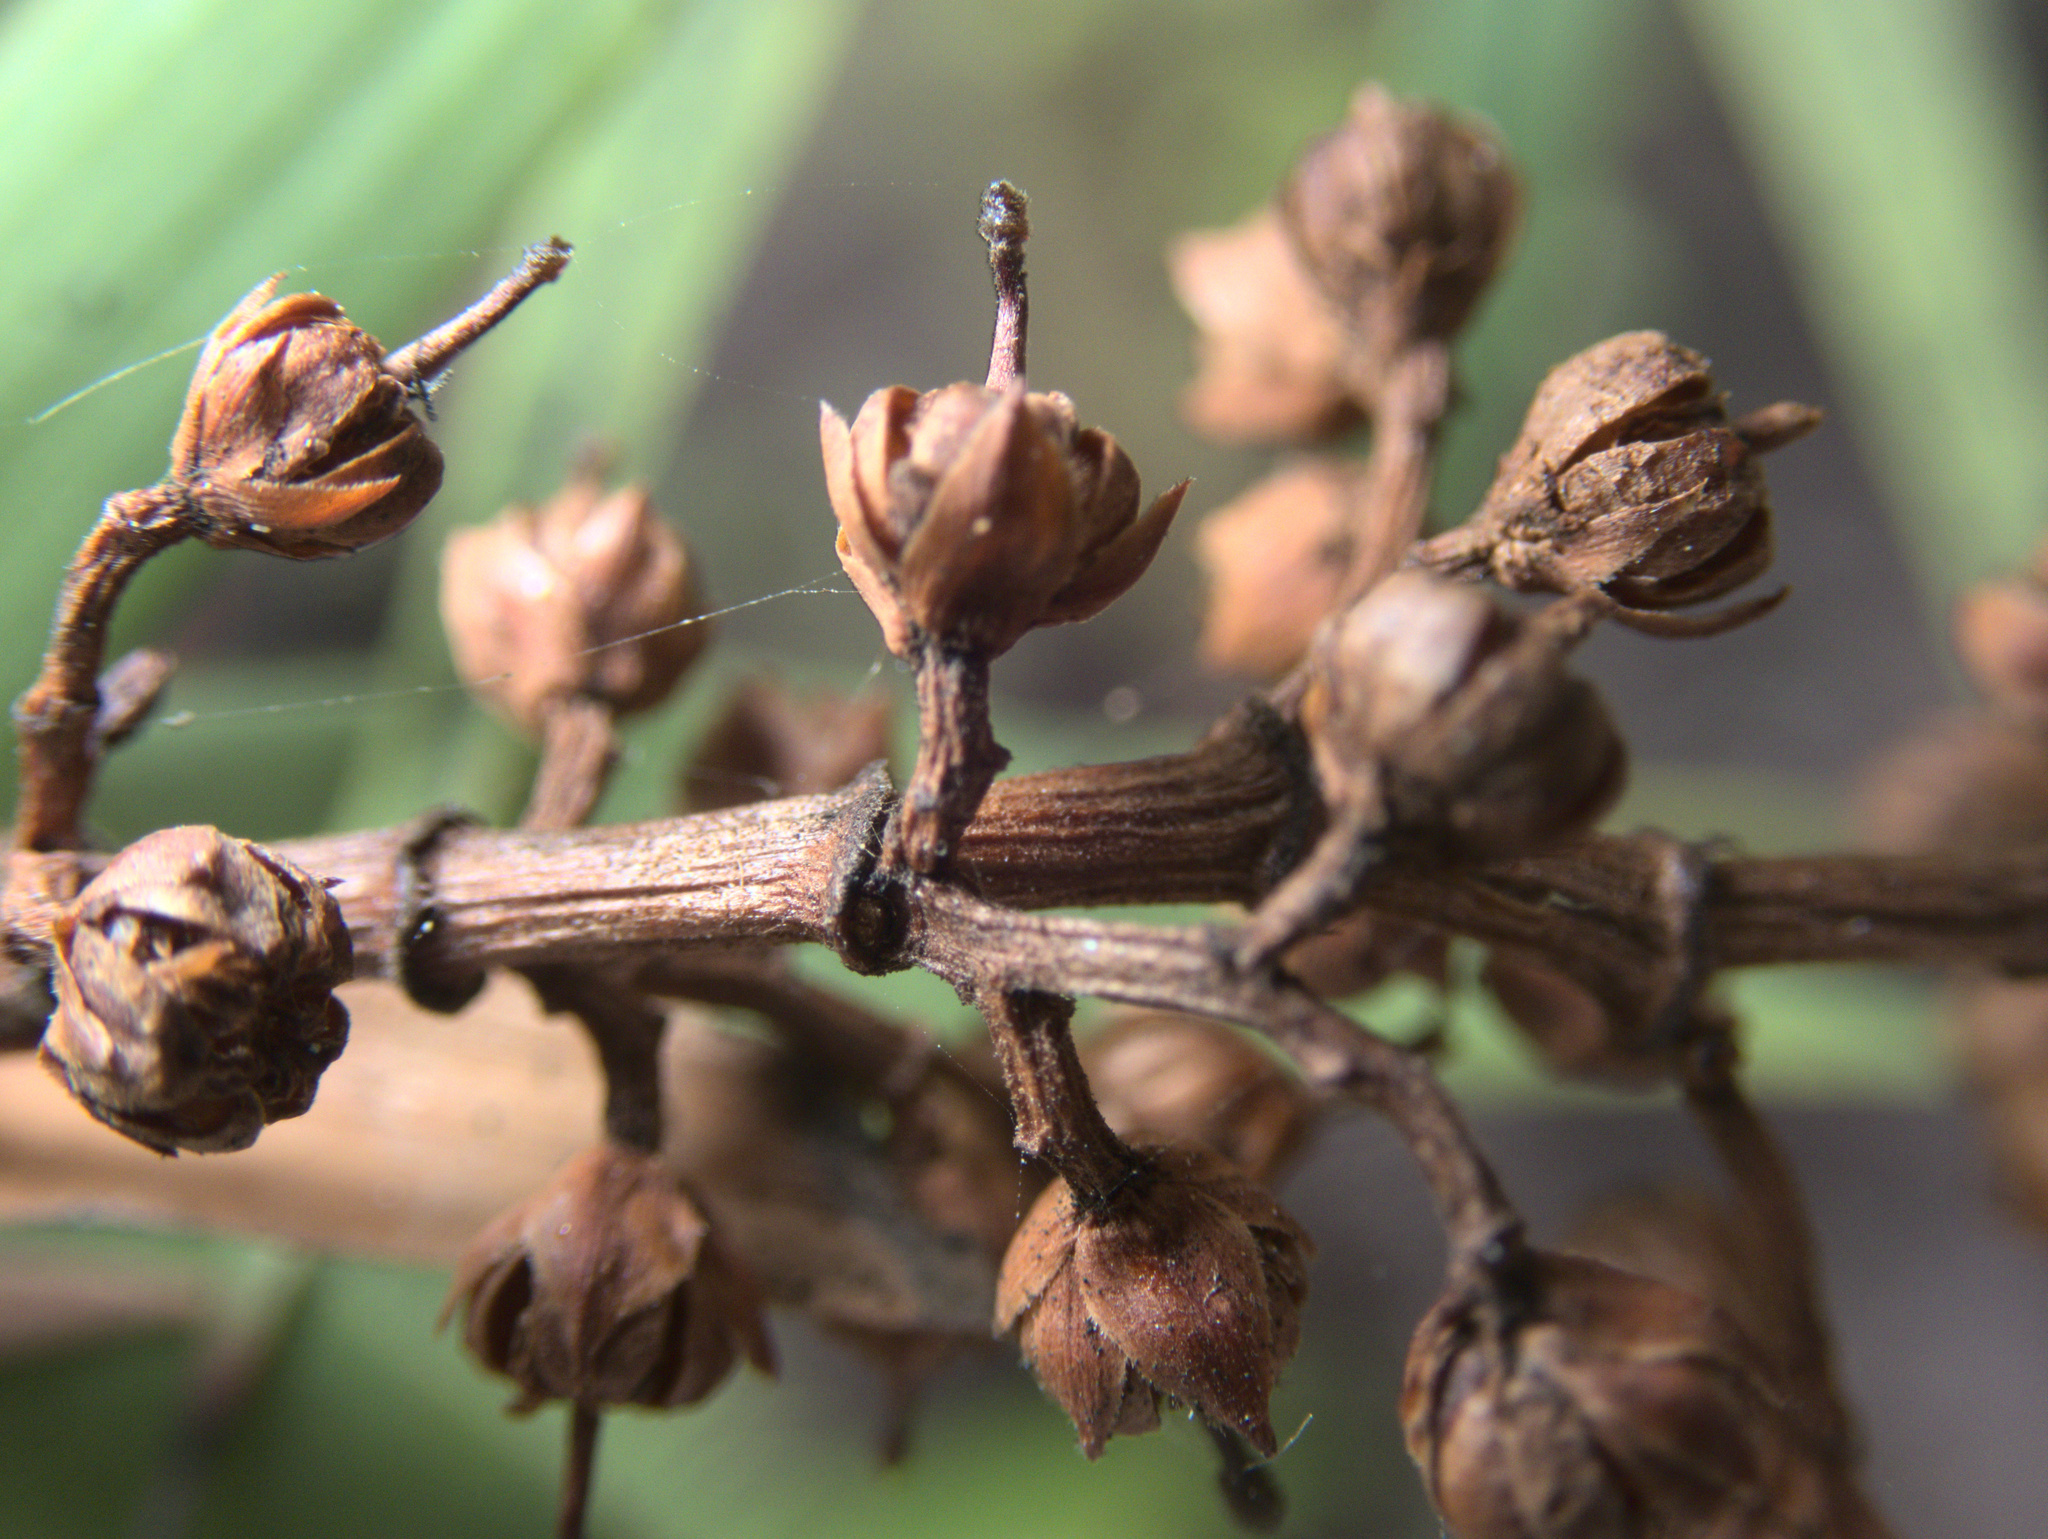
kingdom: Plantae
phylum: Tracheophyta
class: Magnoliopsida
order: Ericales
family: Ericaceae
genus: Dracophyllum
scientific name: Dracophyllum strictum
